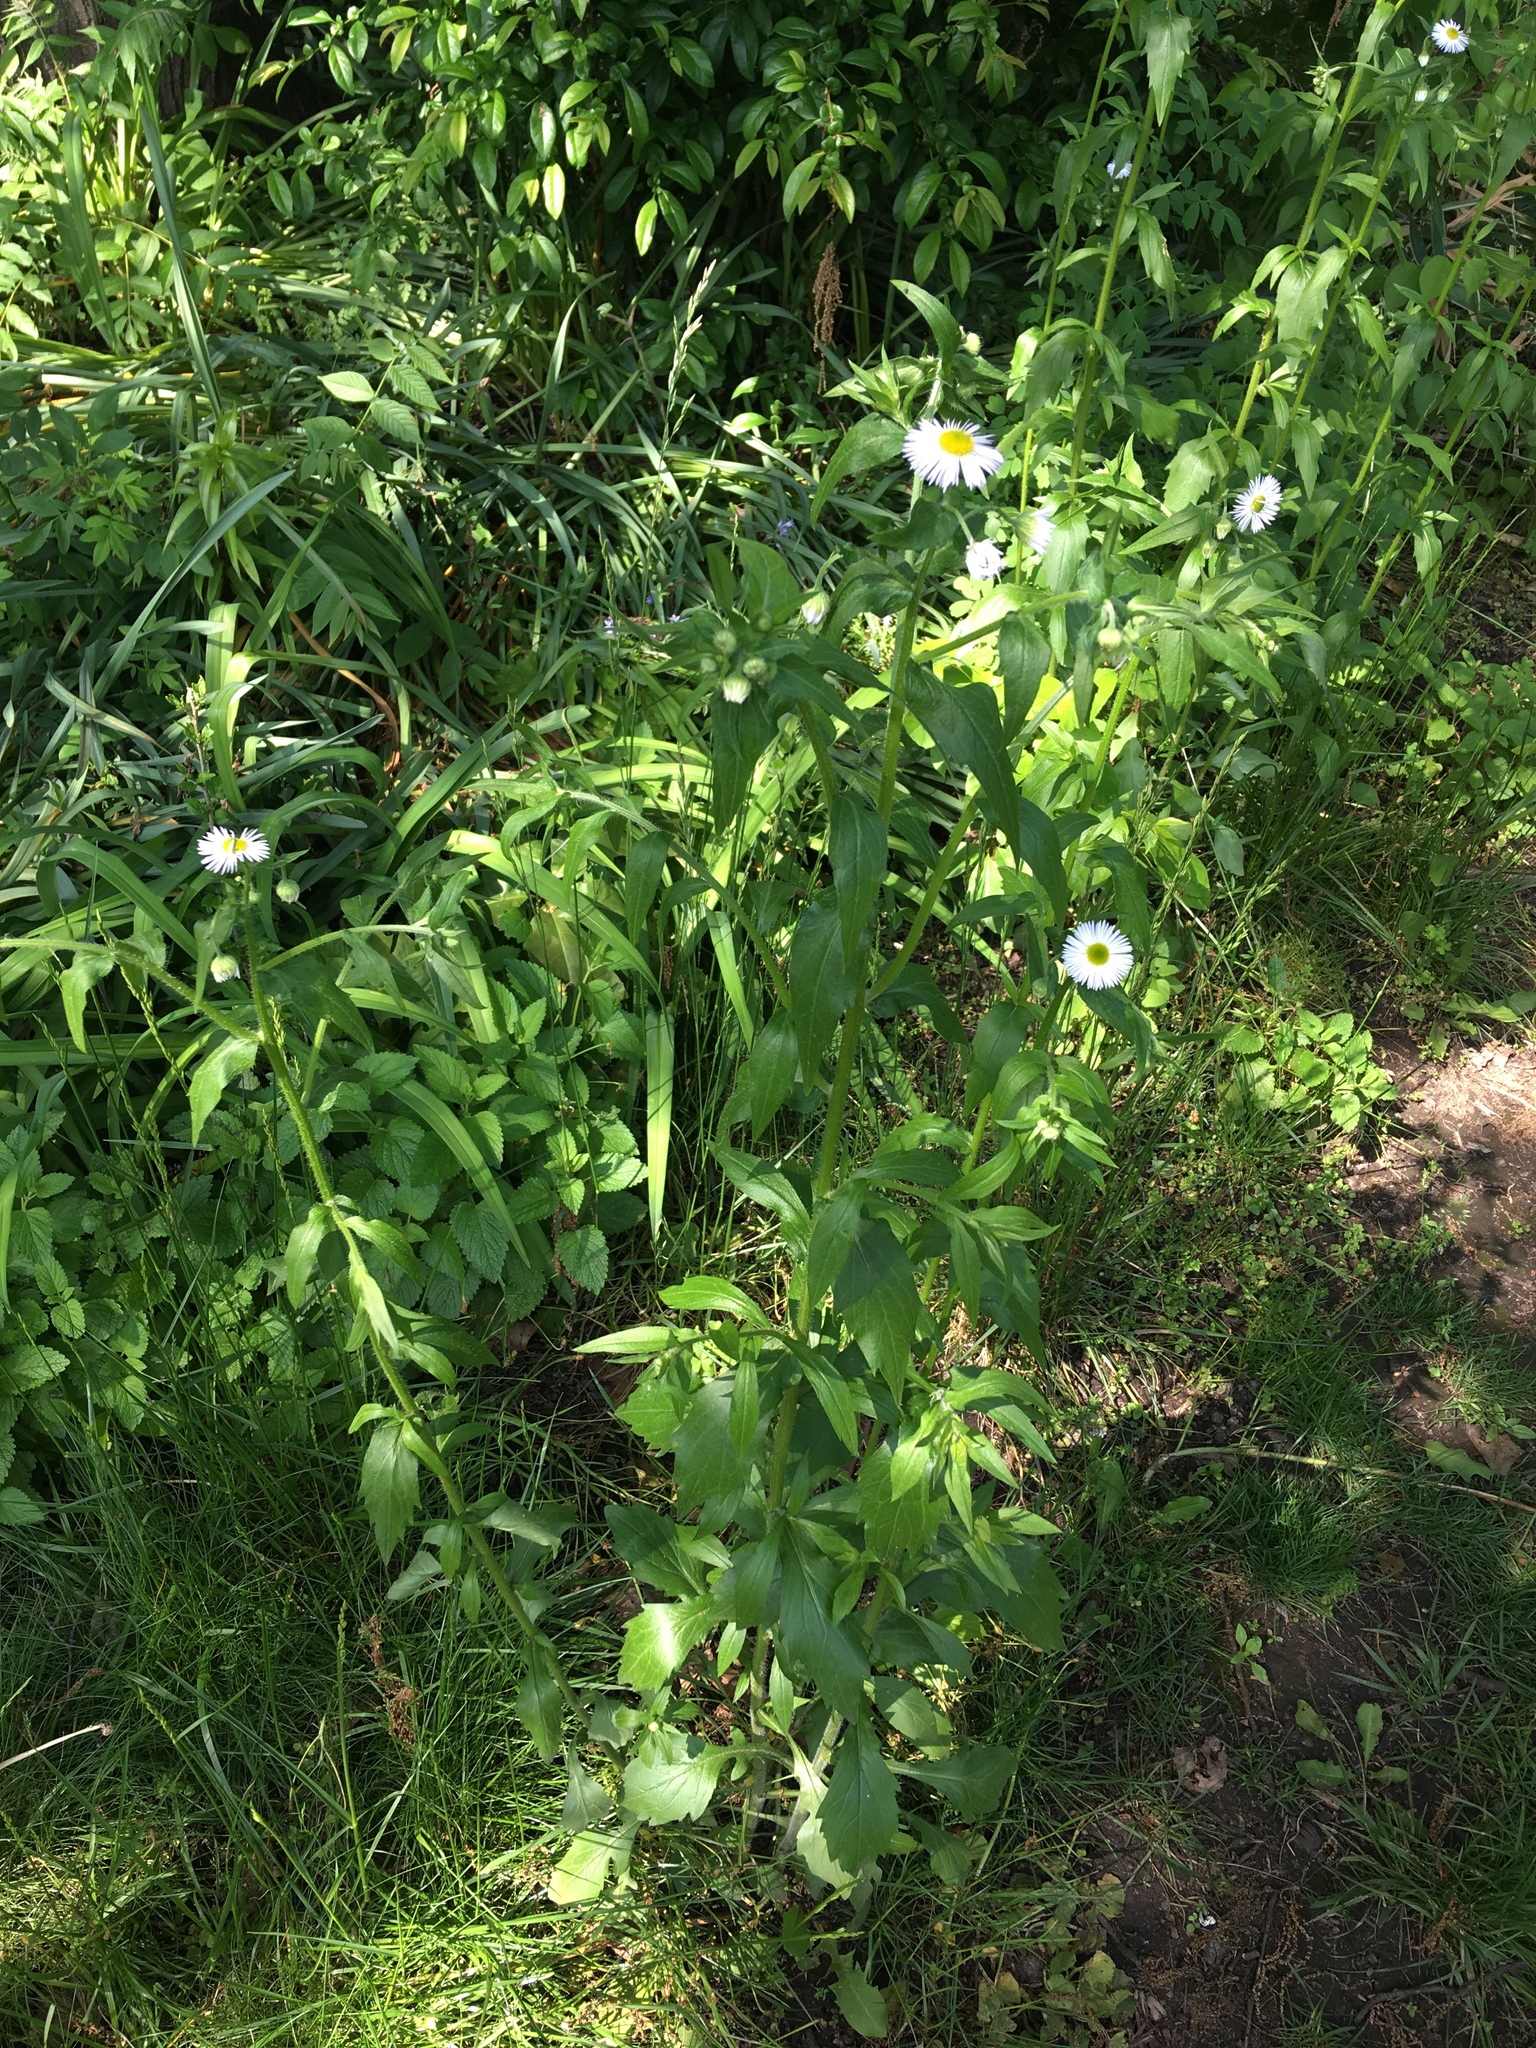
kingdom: Plantae
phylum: Tracheophyta
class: Magnoliopsida
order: Asterales
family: Asteraceae
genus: Erigeron
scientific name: Erigeron philadelphicus
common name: Robin's-plantain
